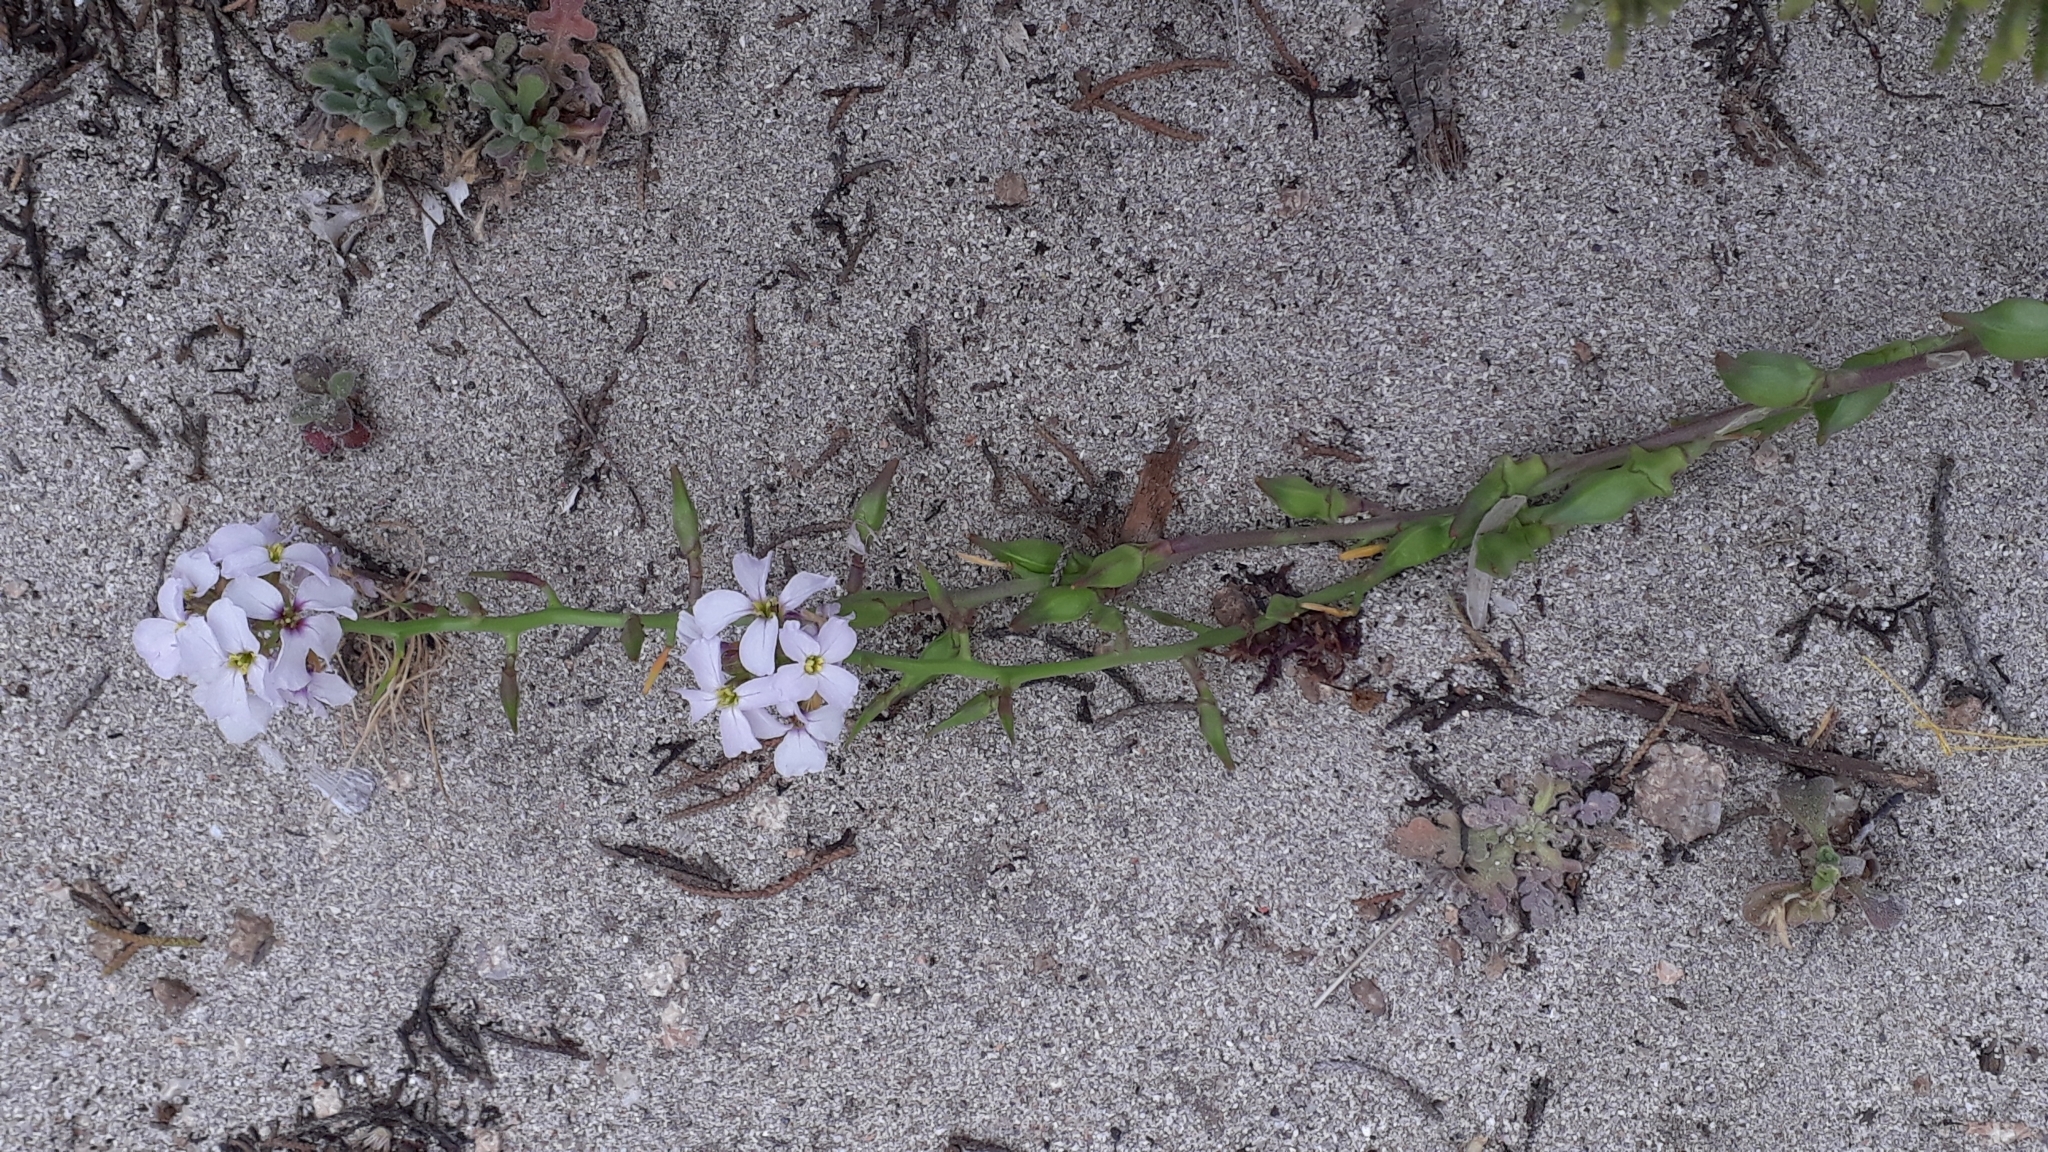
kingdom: Plantae
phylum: Tracheophyta
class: Magnoliopsida
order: Brassicales
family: Brassicaceae
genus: Cakile
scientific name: Cakile maritima
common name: Sea rocket
